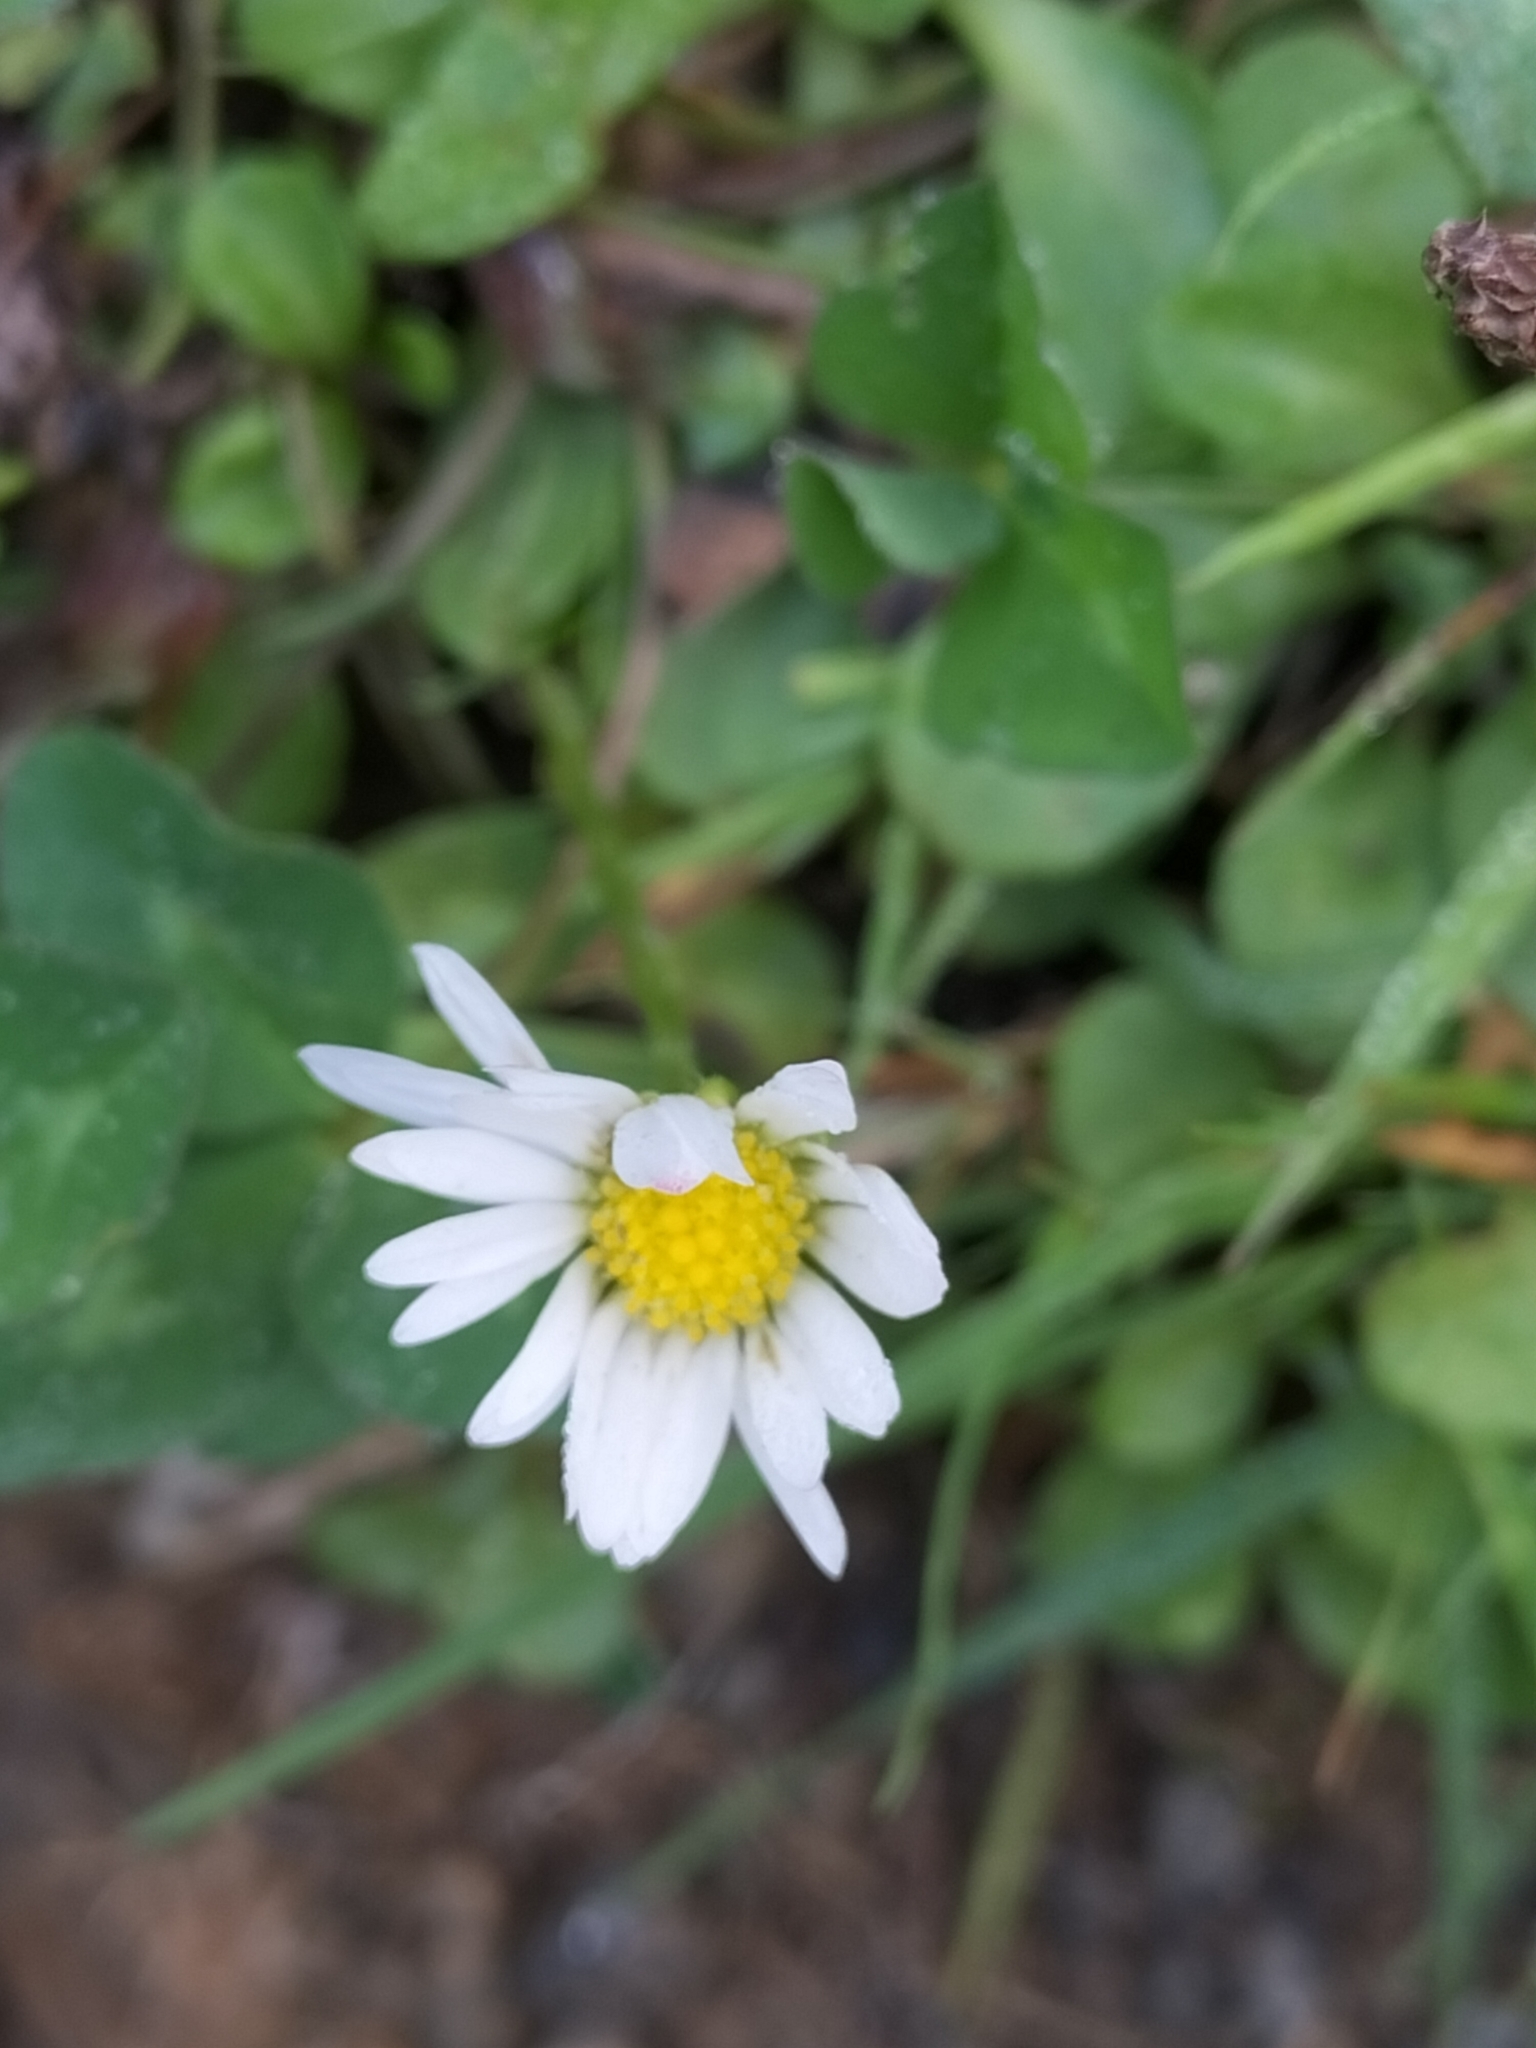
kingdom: Plantae
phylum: Tracheophyta
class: Magnoliopsida
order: Asterales
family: Asteraceae
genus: Bellis
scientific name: Bellis perennis
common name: Lawndaisy
